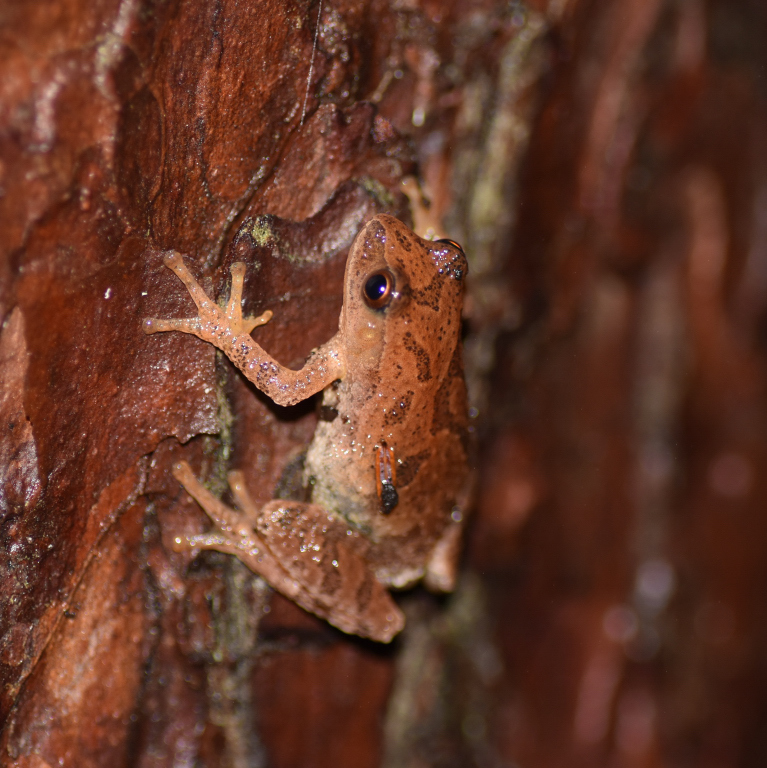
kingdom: Animalia
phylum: Chordata
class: Amphibia
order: Anura
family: Hylidae
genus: Pseudacris
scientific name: Pseudacris crucifer
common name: Spring peeper
